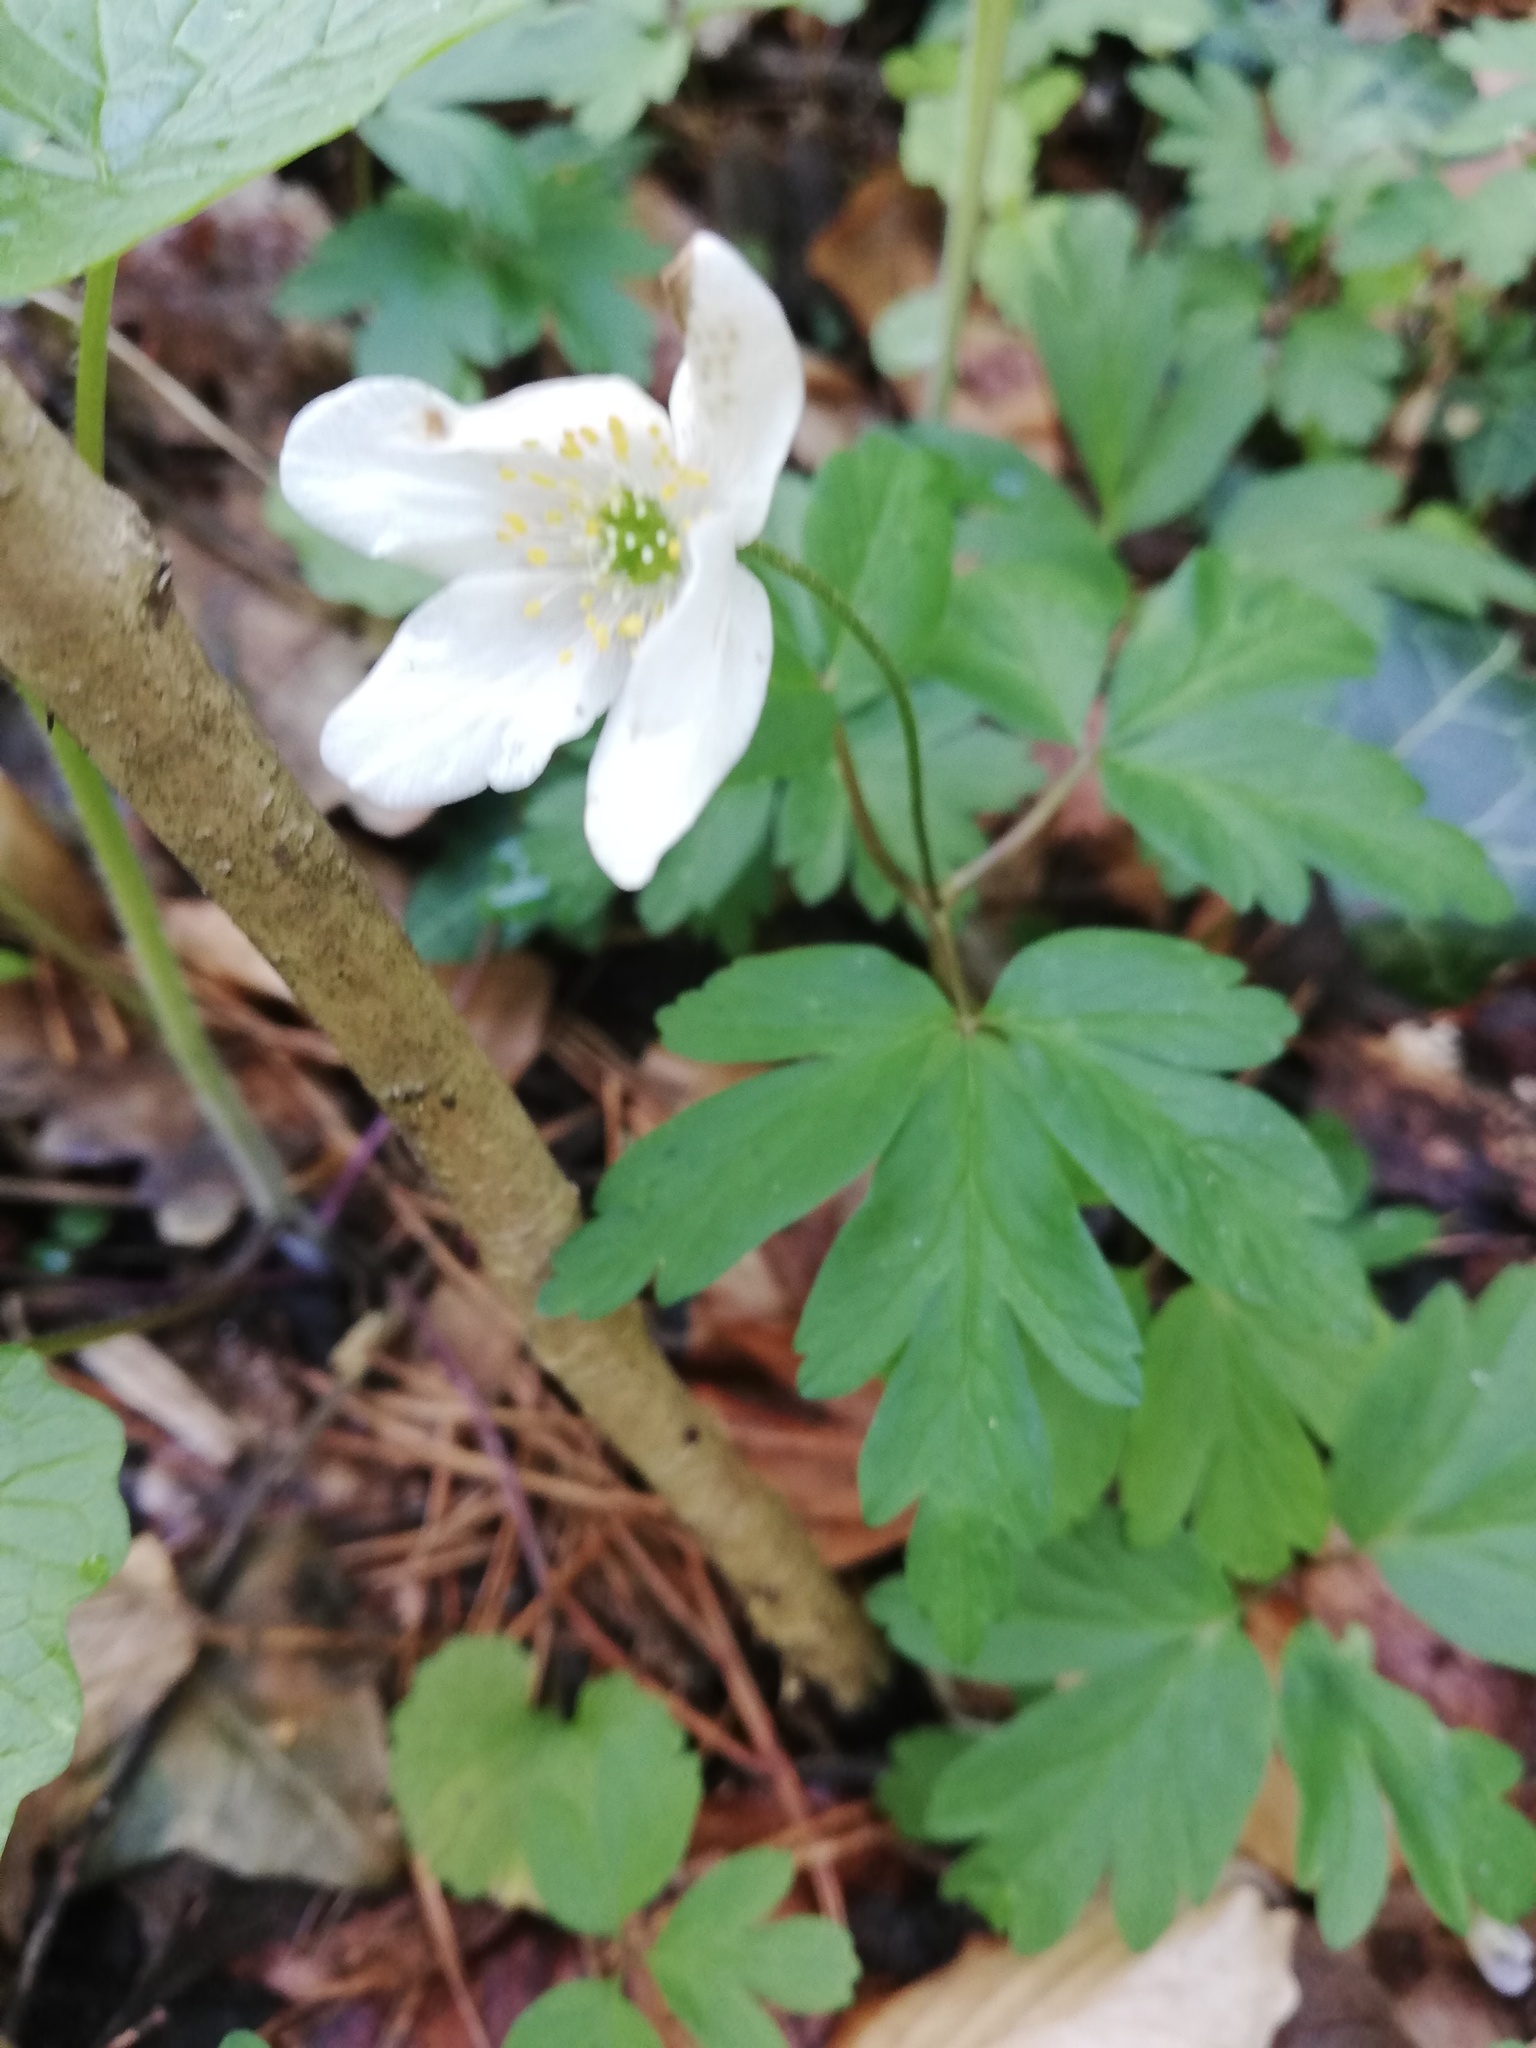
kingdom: Plantae
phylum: Tracheophyta
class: Magnoliopsida
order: Ranunculales
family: Ranunculaceae
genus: Anemone
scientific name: Anemone nemorosa
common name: Wood anemone
